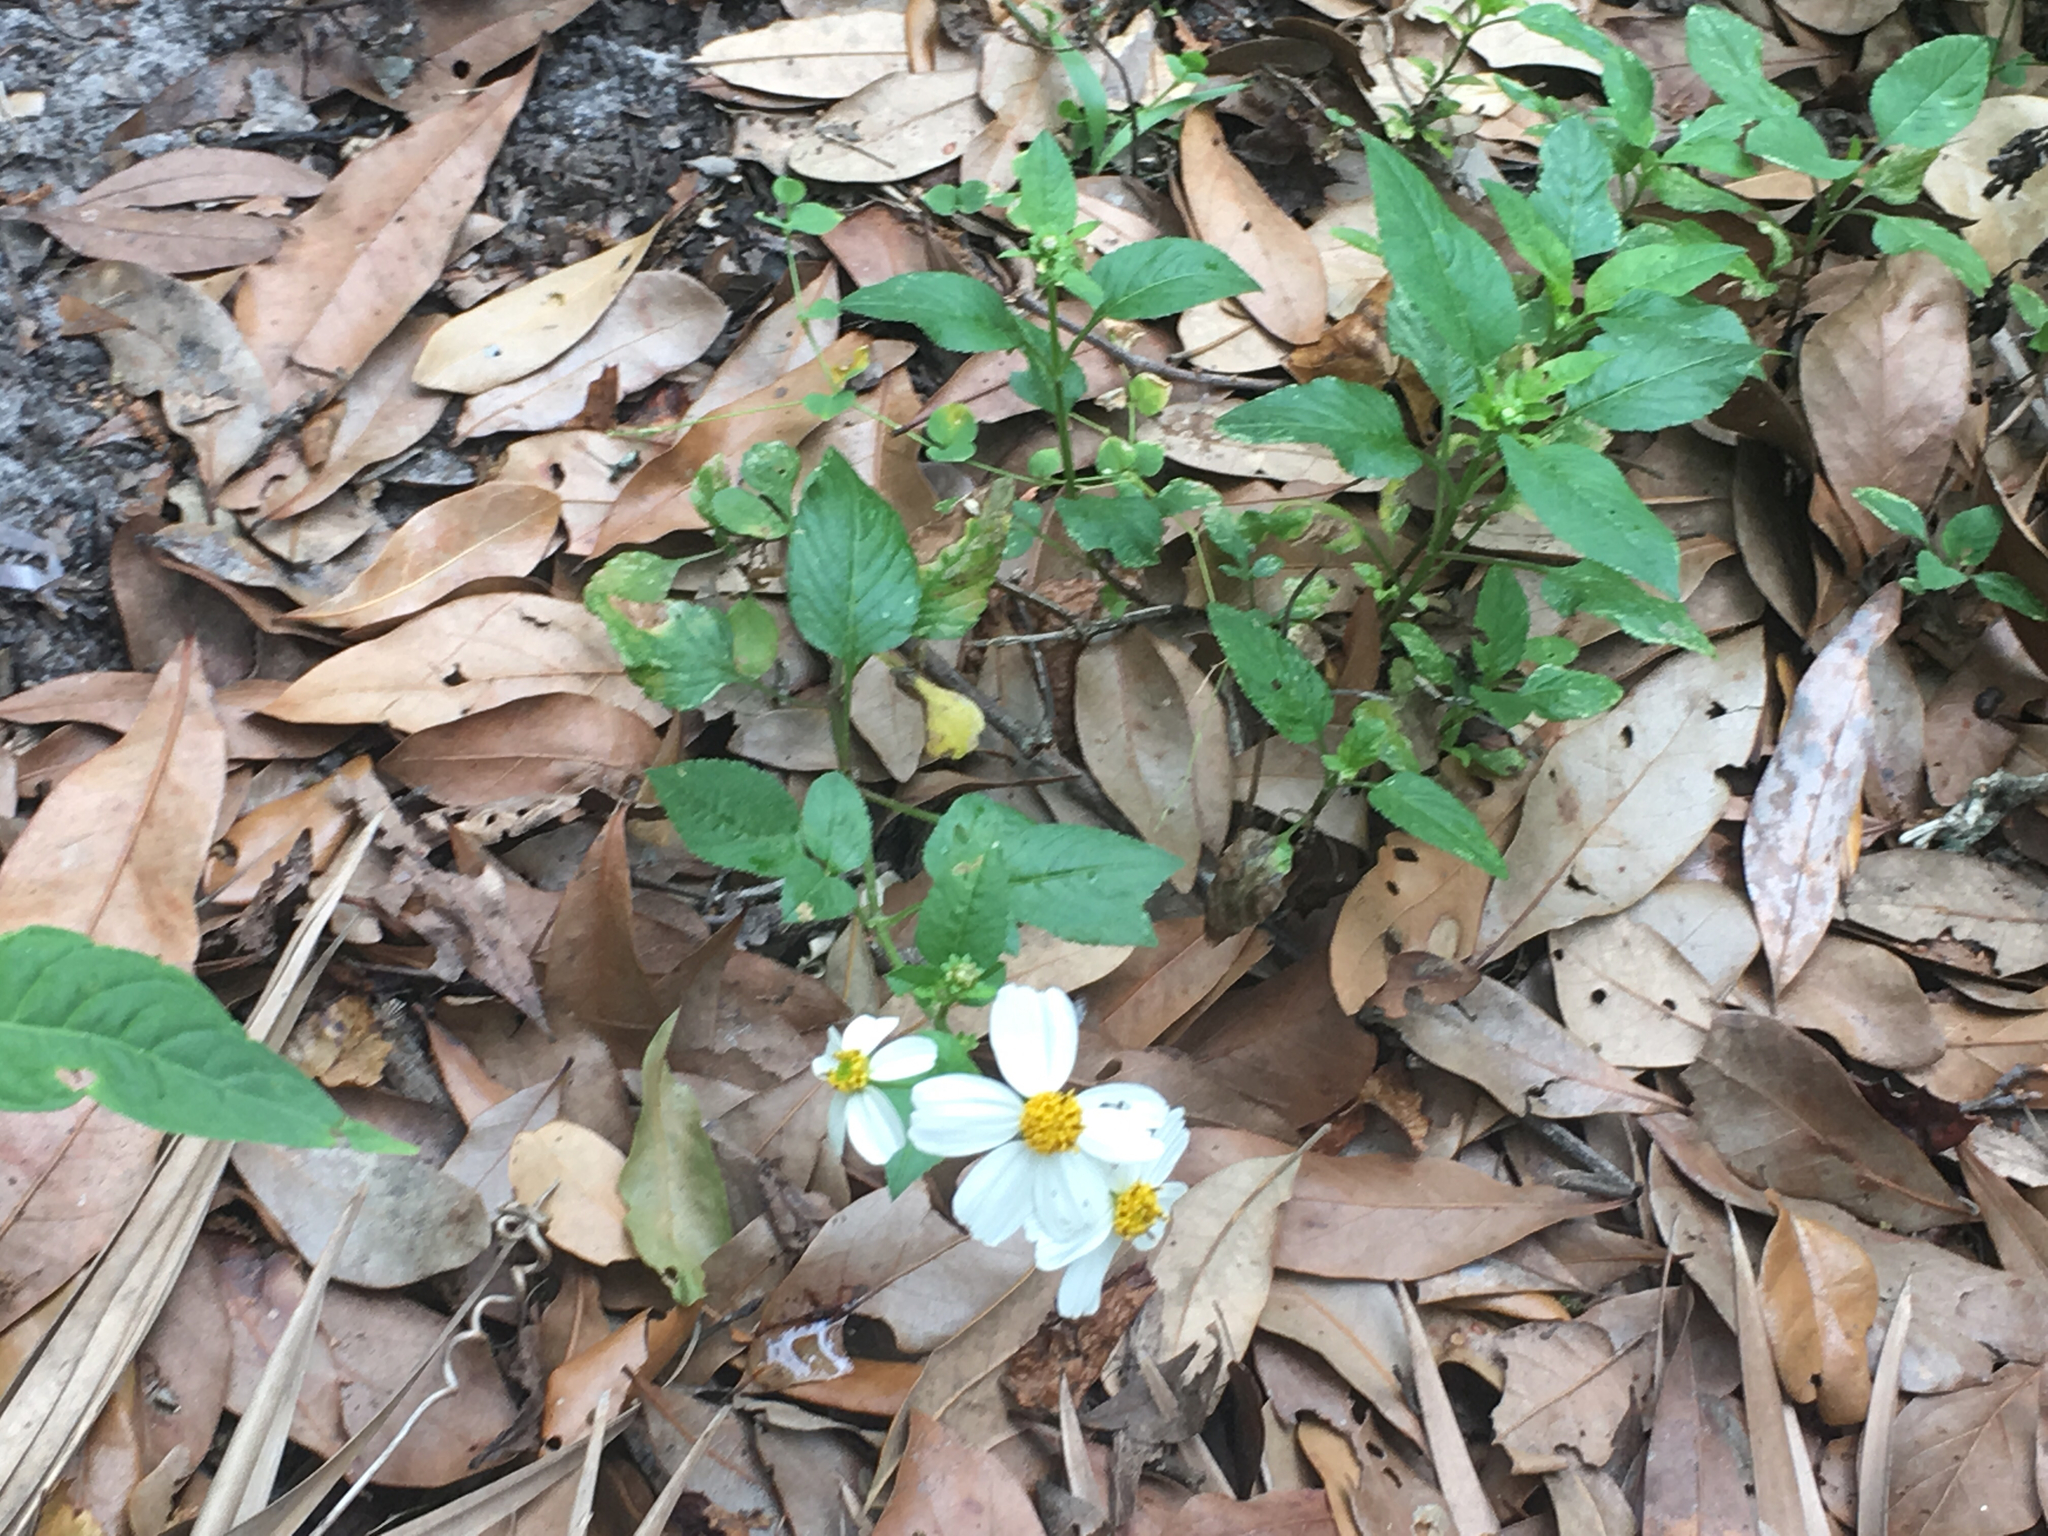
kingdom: Plantae
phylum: Tracheophyta
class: Magnoliopsida
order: Asterales
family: Asteraceae
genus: Bidens
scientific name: Bidens alba
